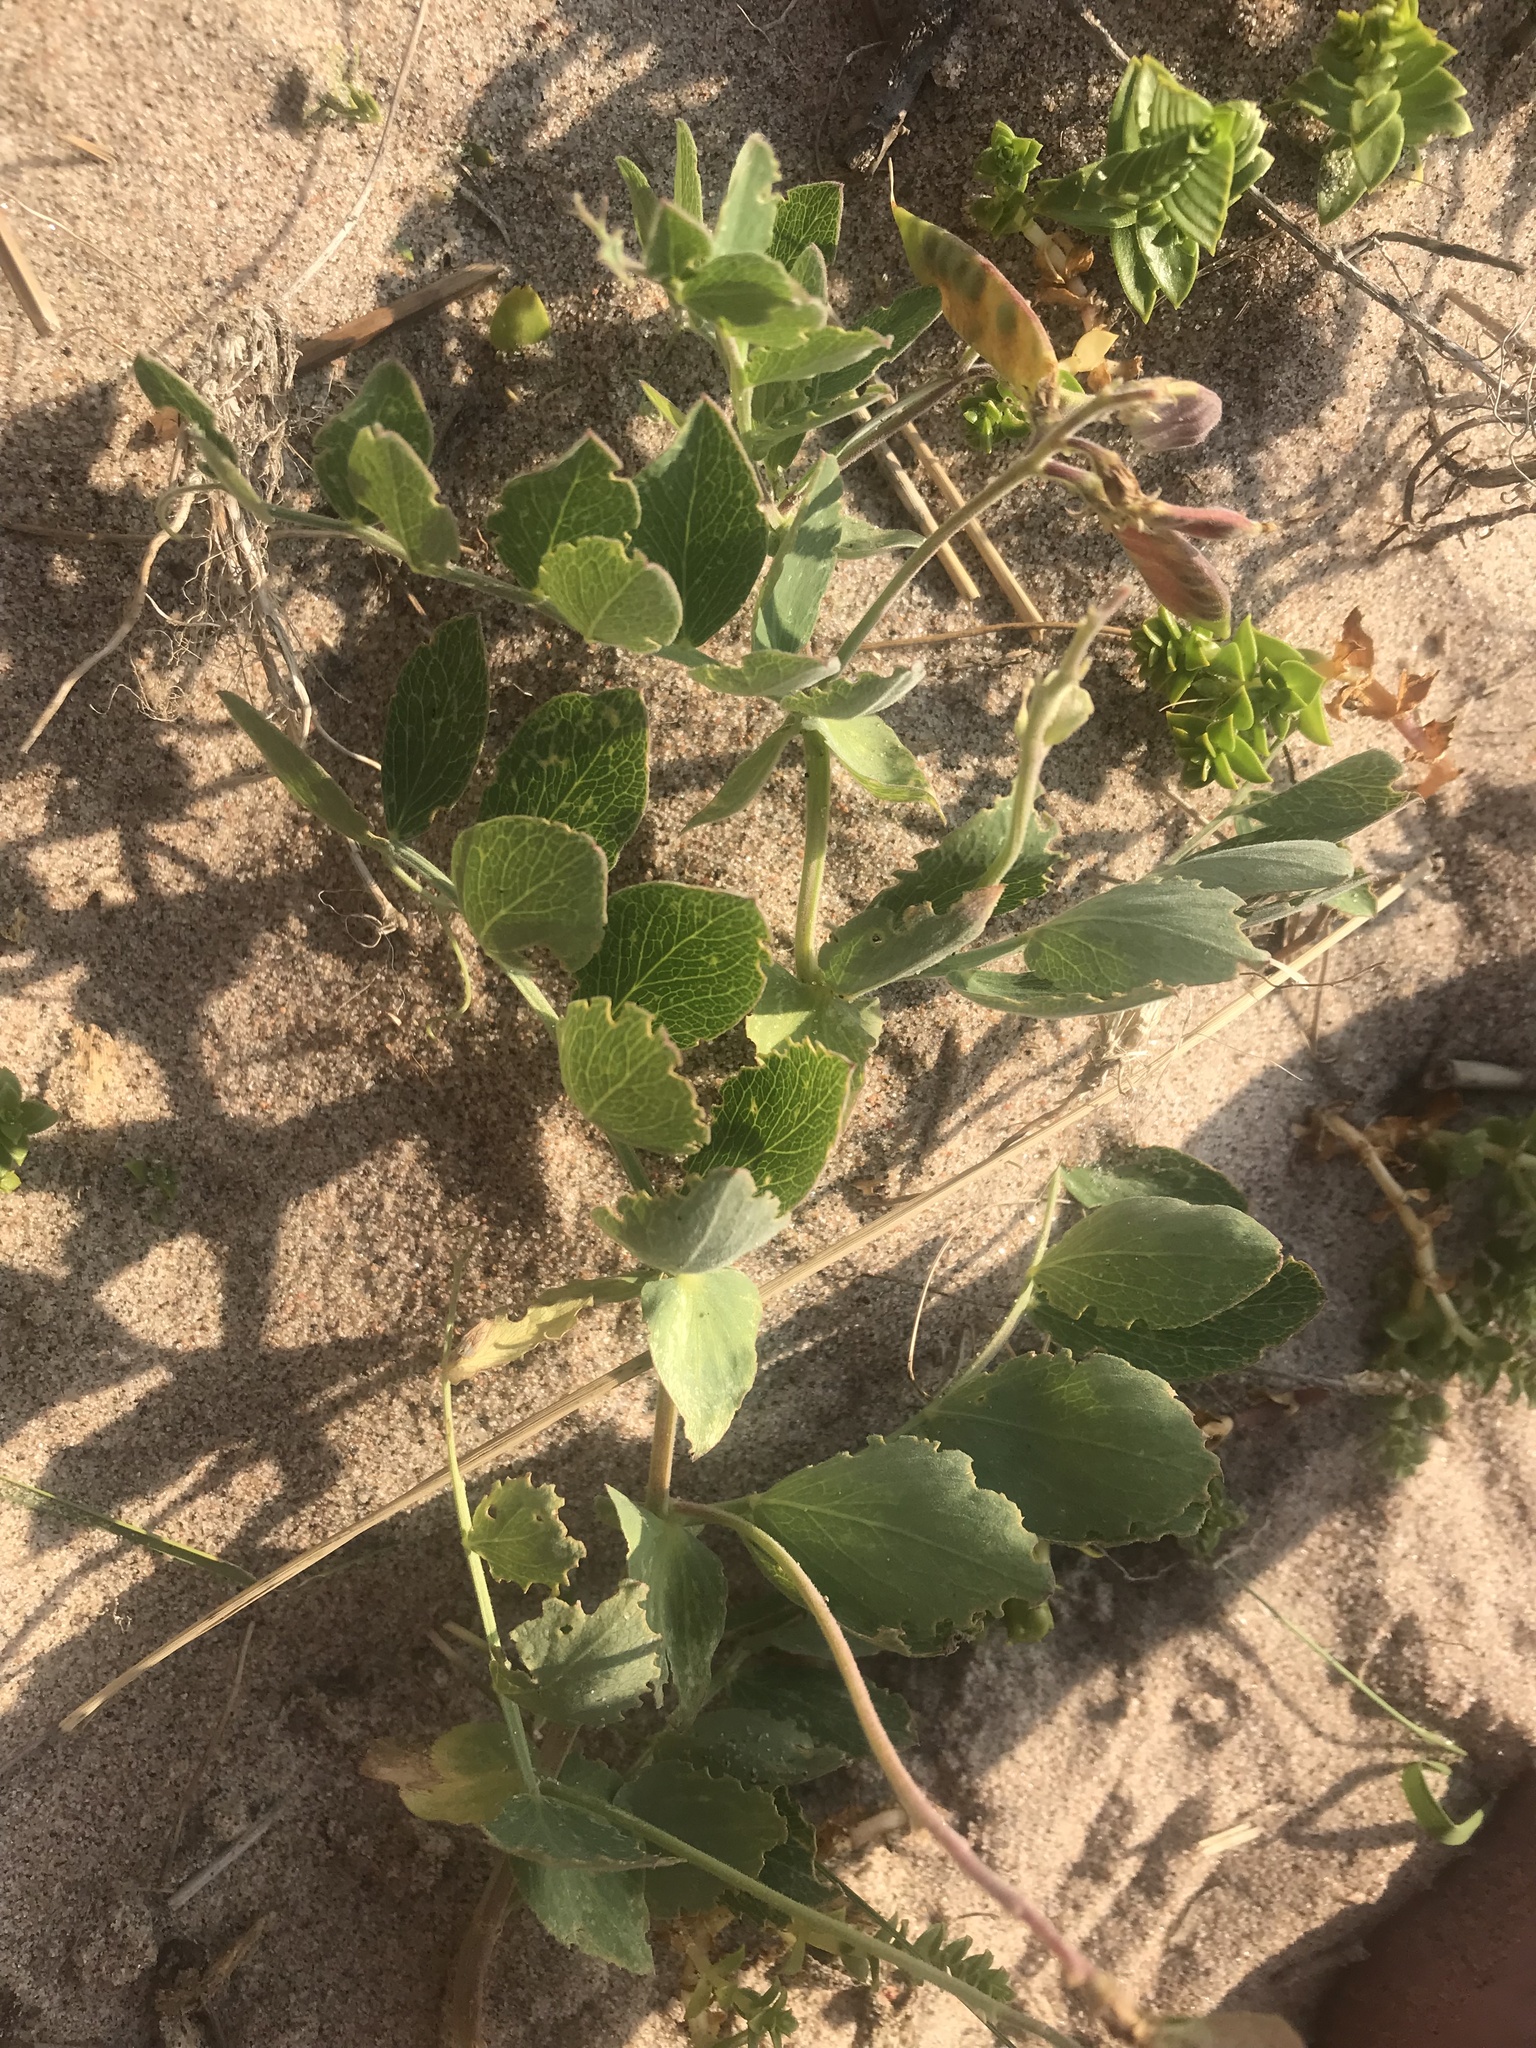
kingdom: Plantae
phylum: Tracheophyta
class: Magnoliopsida
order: Fabales
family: Fabaceae
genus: Lathyrus
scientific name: Lathyrus japonicus
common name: Sea pea
